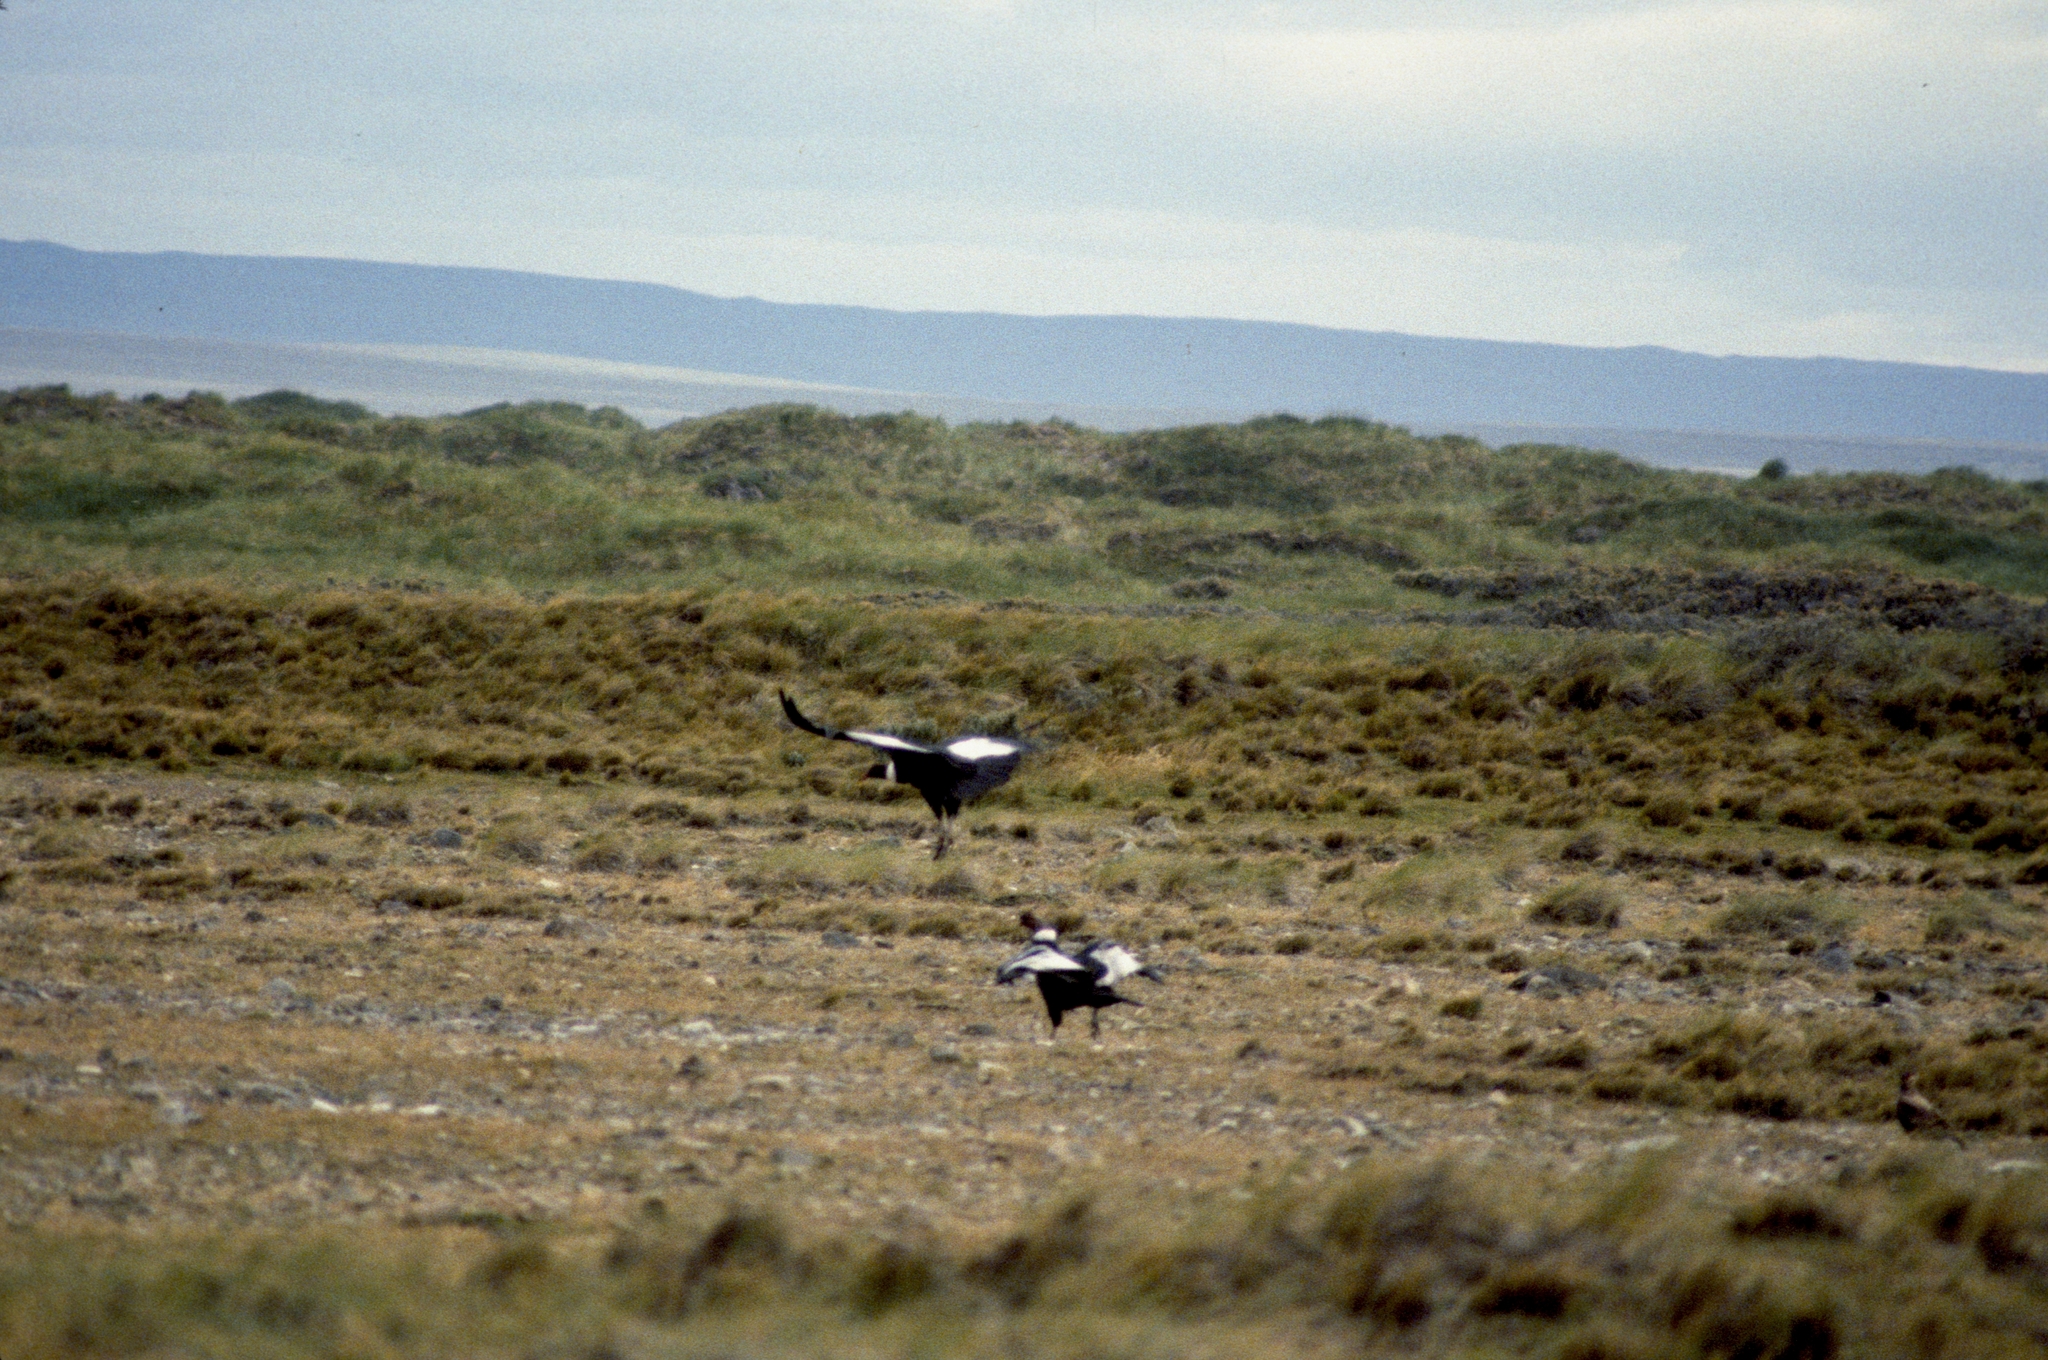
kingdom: Animalia
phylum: Chordata
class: Aves
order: Accipitriformes
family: Cathartidae
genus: Vultur
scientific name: Vultur gryphus
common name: Andean condor
